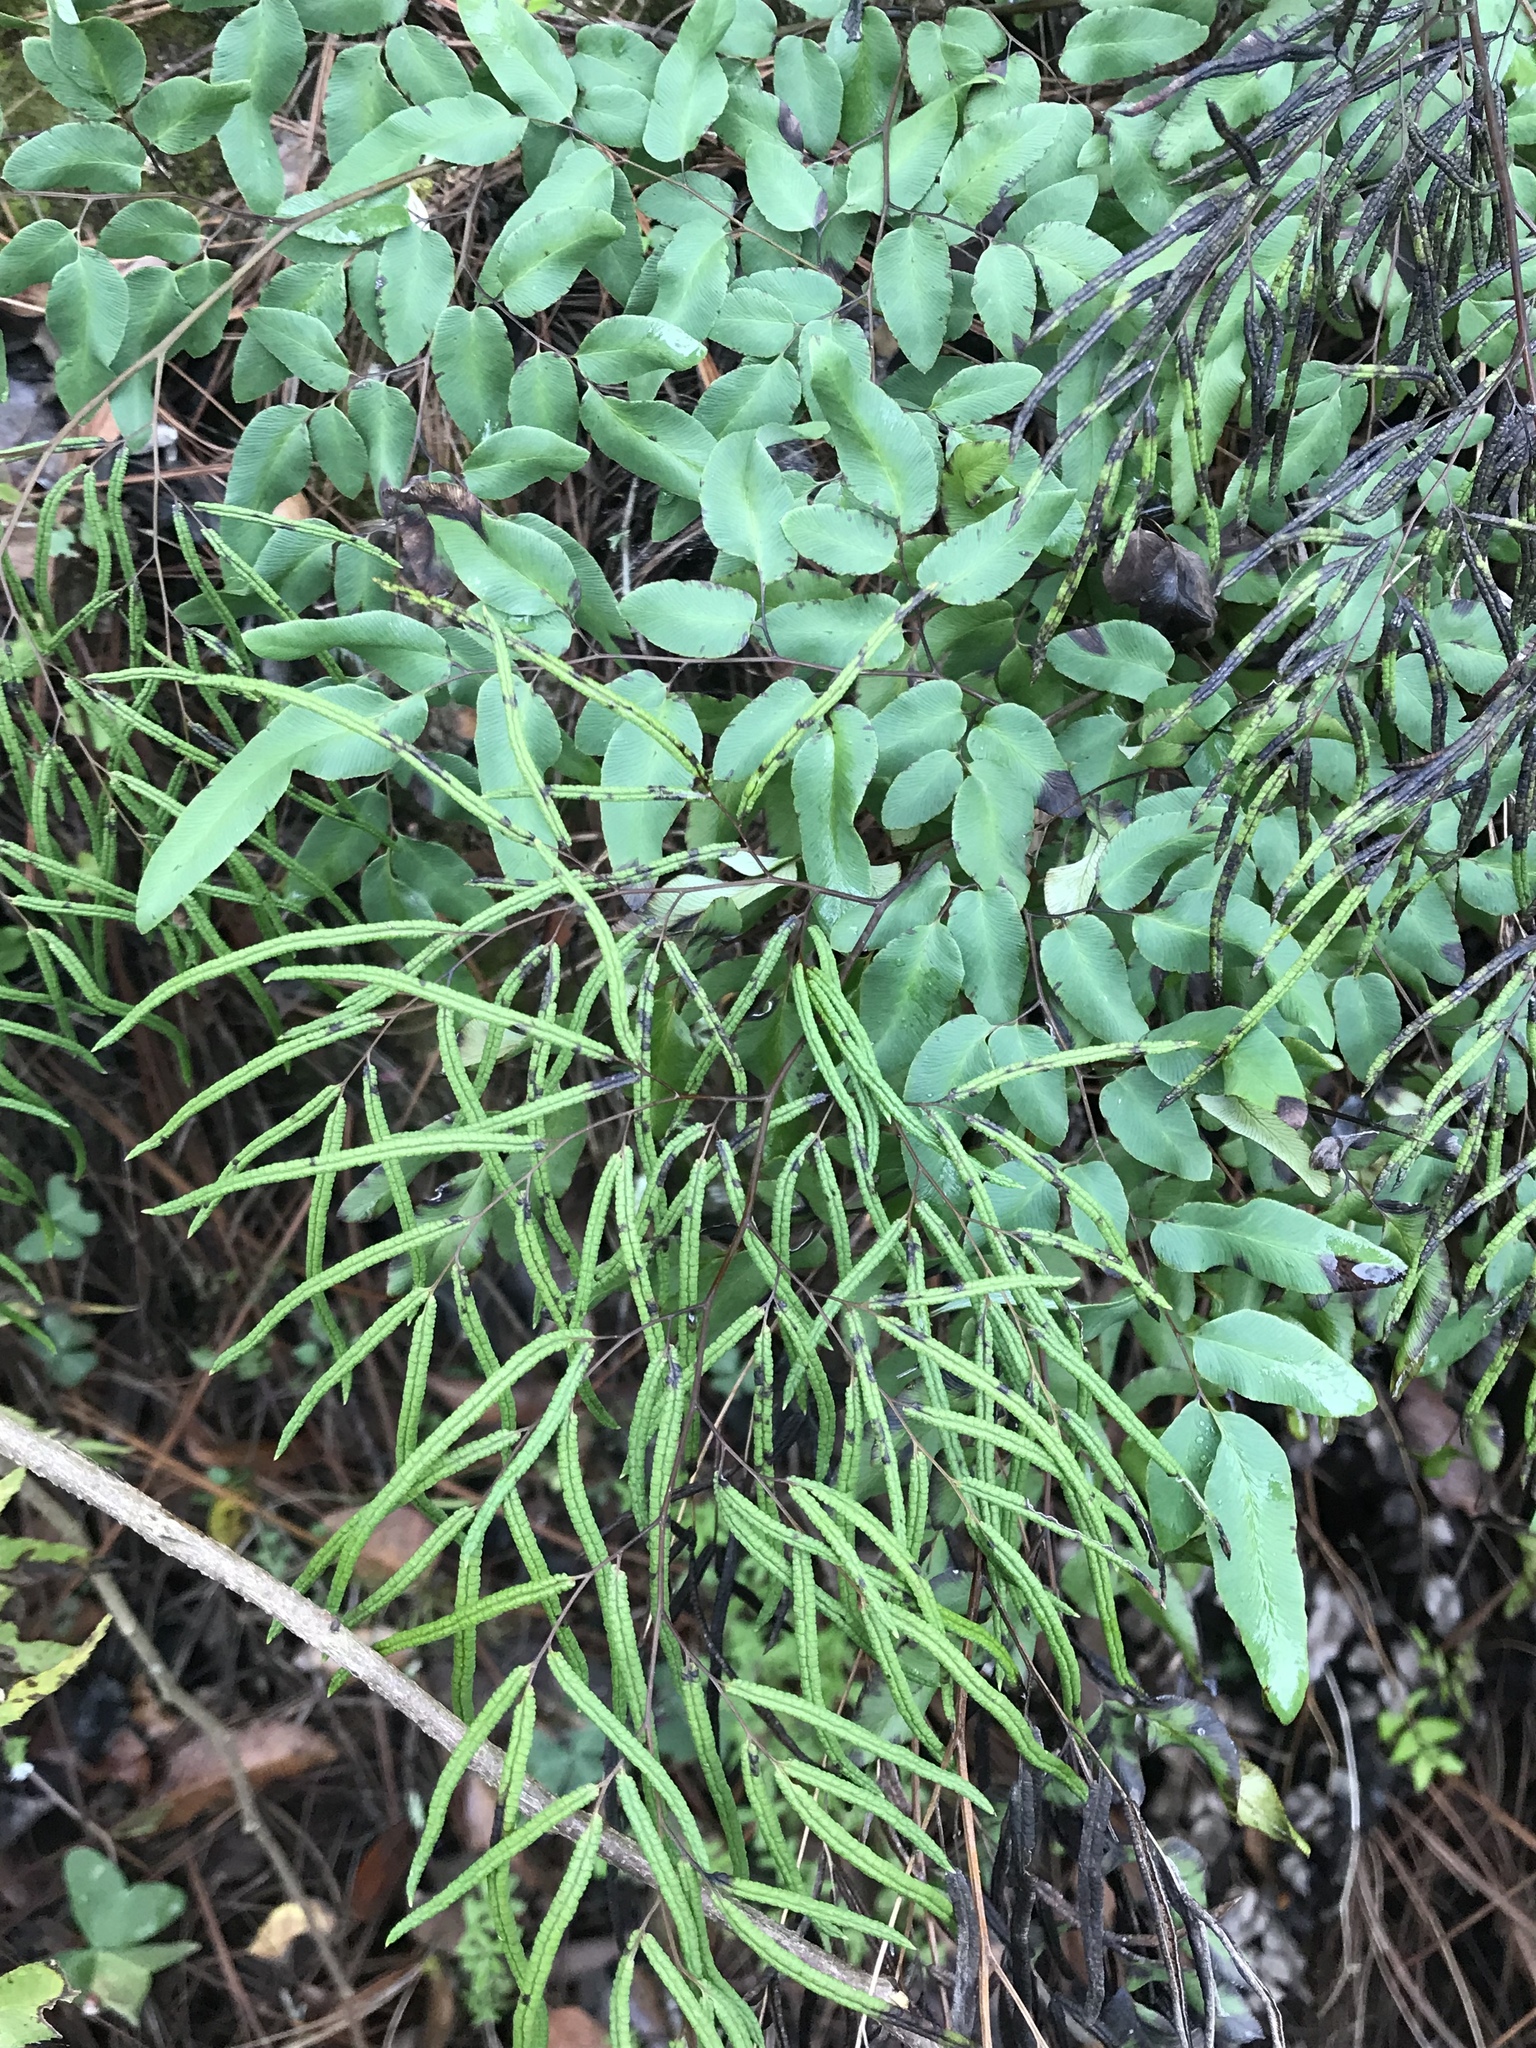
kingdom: Plantae
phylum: Tracheophyta
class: Polypodiopsida
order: Polypodiales
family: Pteridaceae
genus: Llavea
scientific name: Llavea cordifolia
